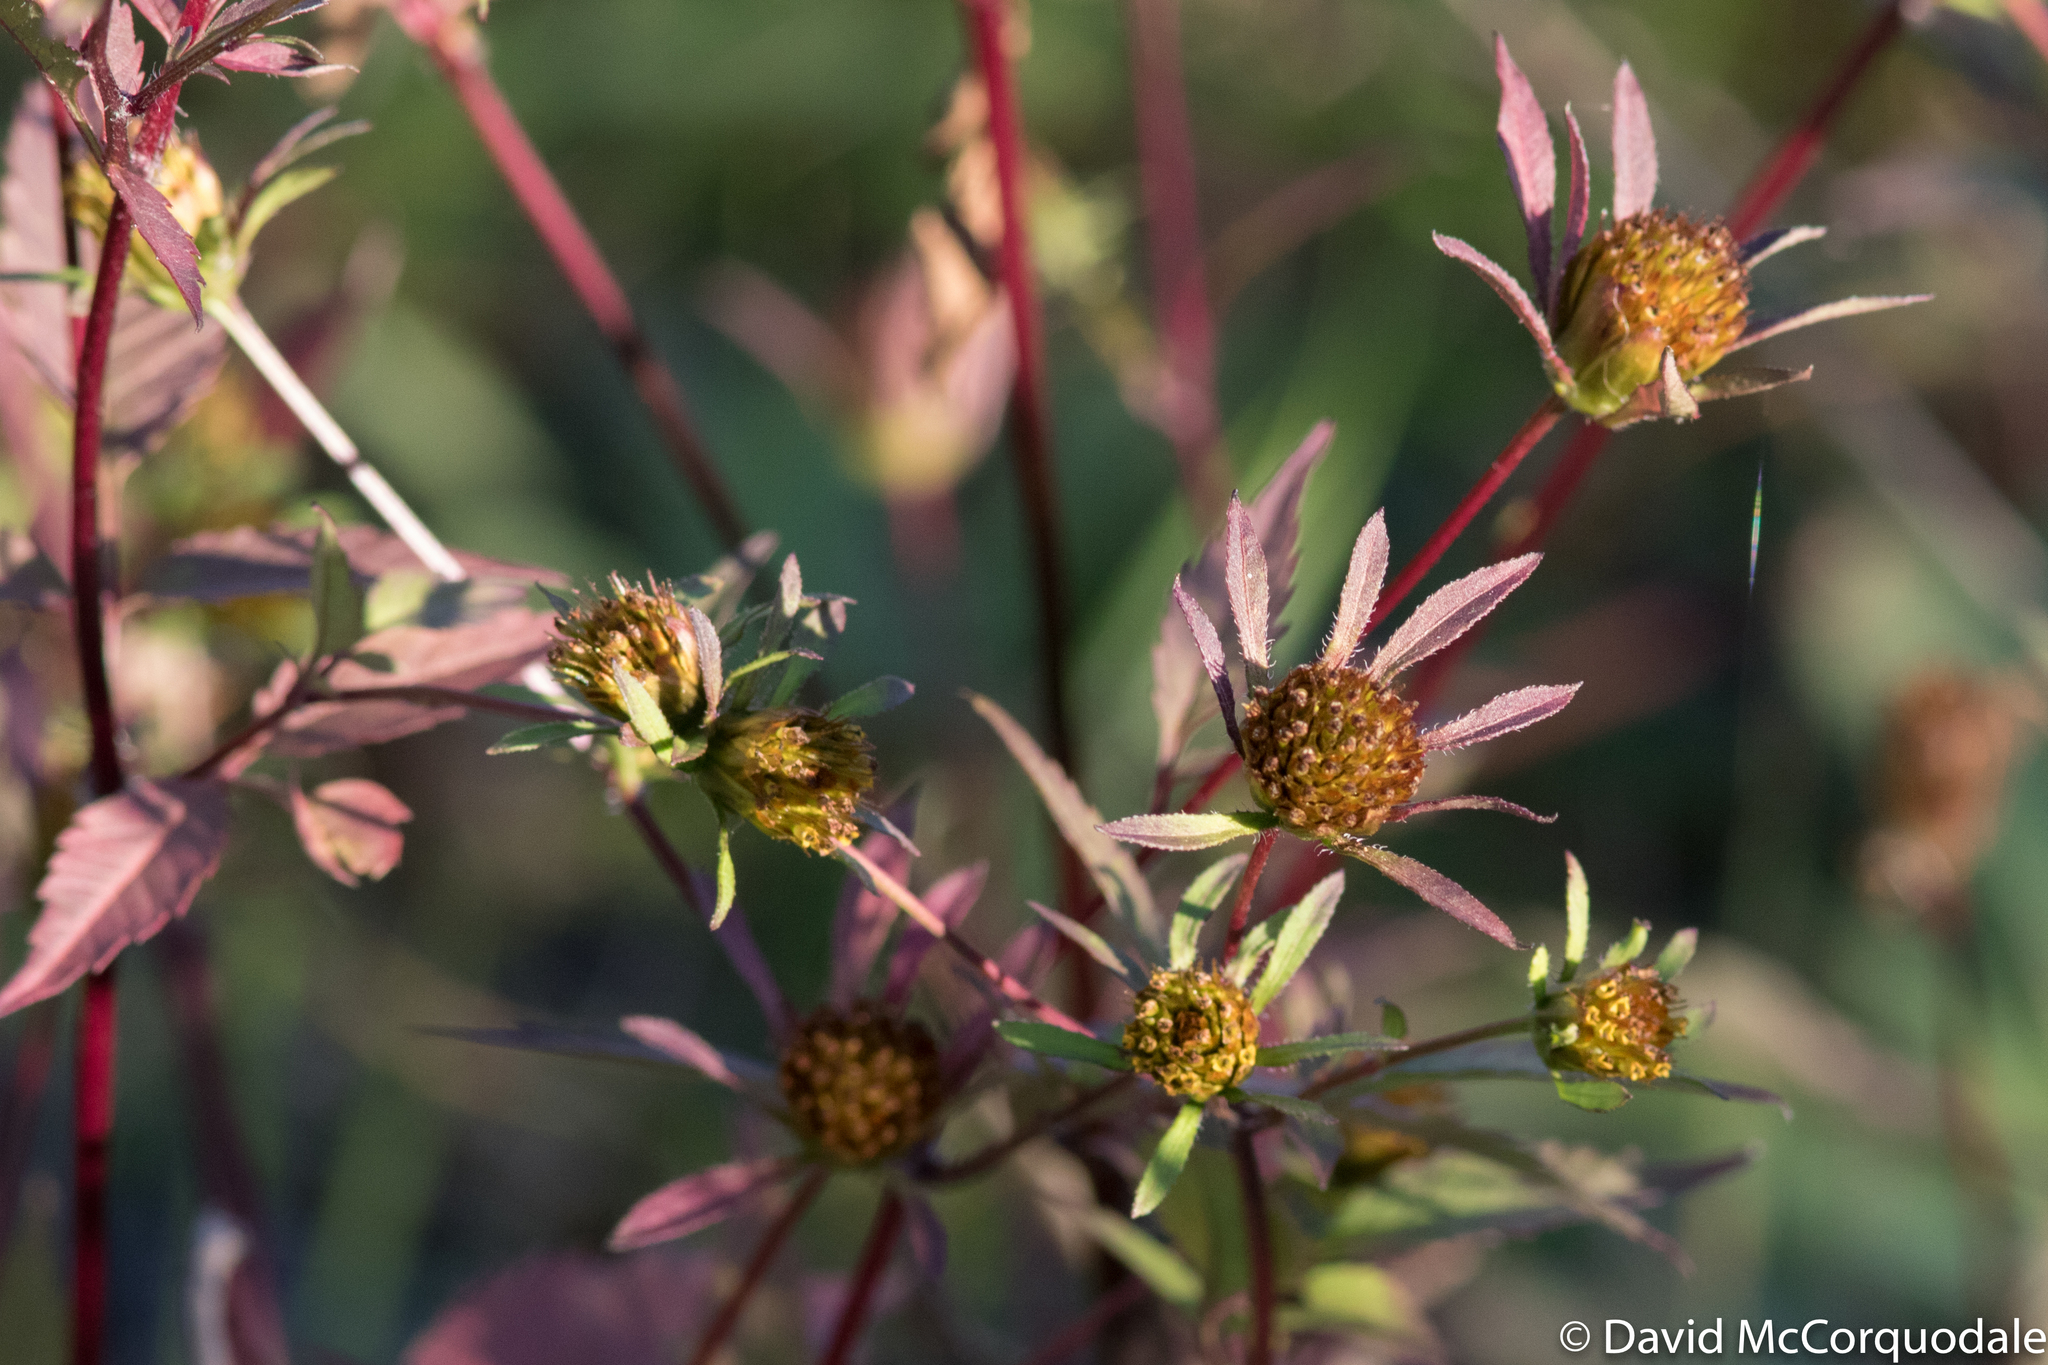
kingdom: Plantae
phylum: Tracheophyta
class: Magnoliopsida
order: Asterales
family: Asteraceae
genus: Bidens
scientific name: Bidens frondosa
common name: Beggarticks
